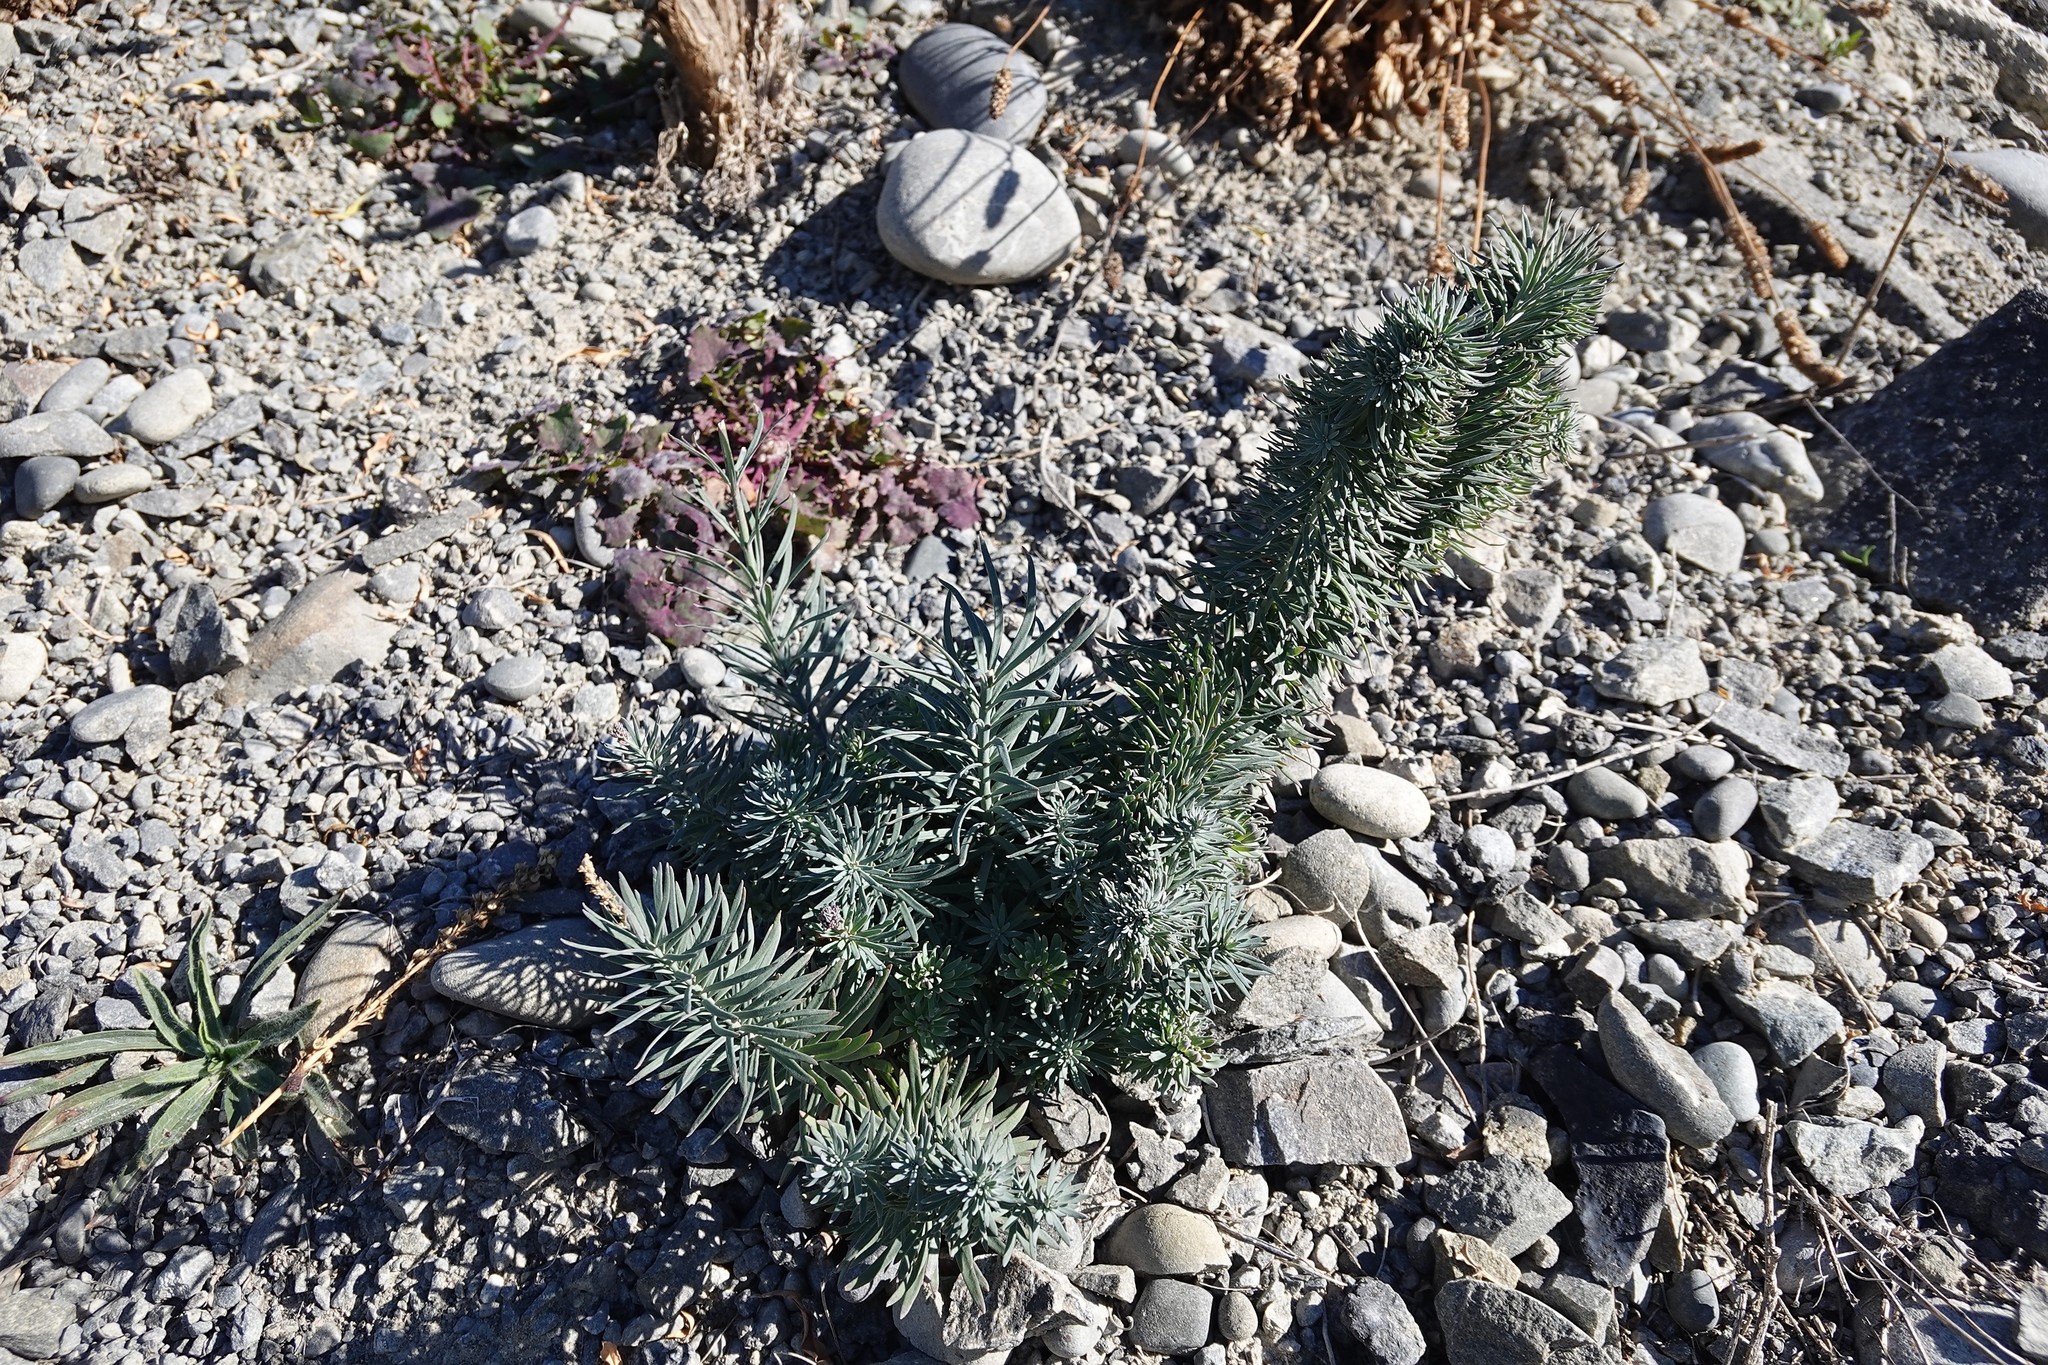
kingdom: Plantae
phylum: Tracheophyta
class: Magnoliopsida
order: Lamiales
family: Plantaginaceae
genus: Linaria
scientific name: Linaria purpurea
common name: Purple toadflax
